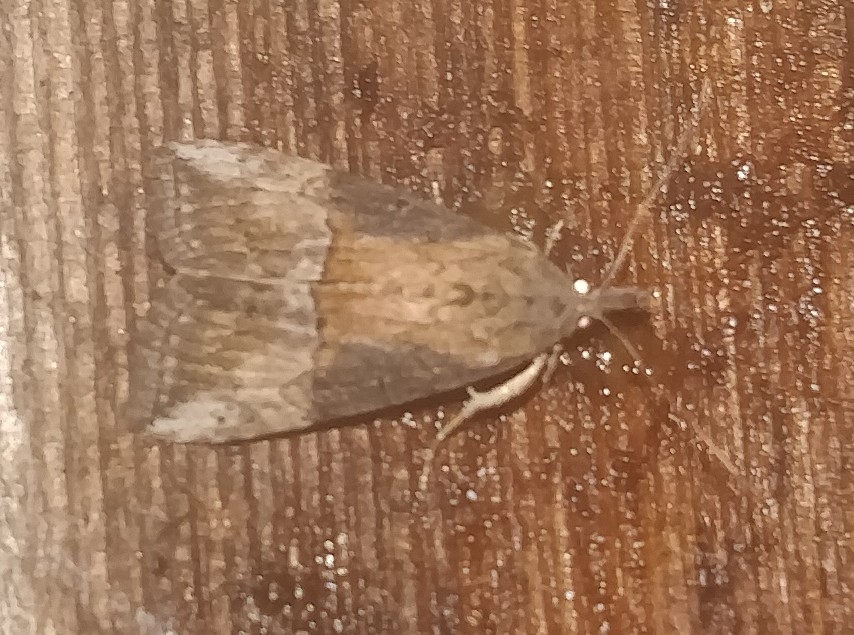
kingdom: Animalia
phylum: Arthropoda
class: Insecta
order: Lepidoptera
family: Erebidae
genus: Hypena
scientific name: Hypena scabra
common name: Green cloverworm
